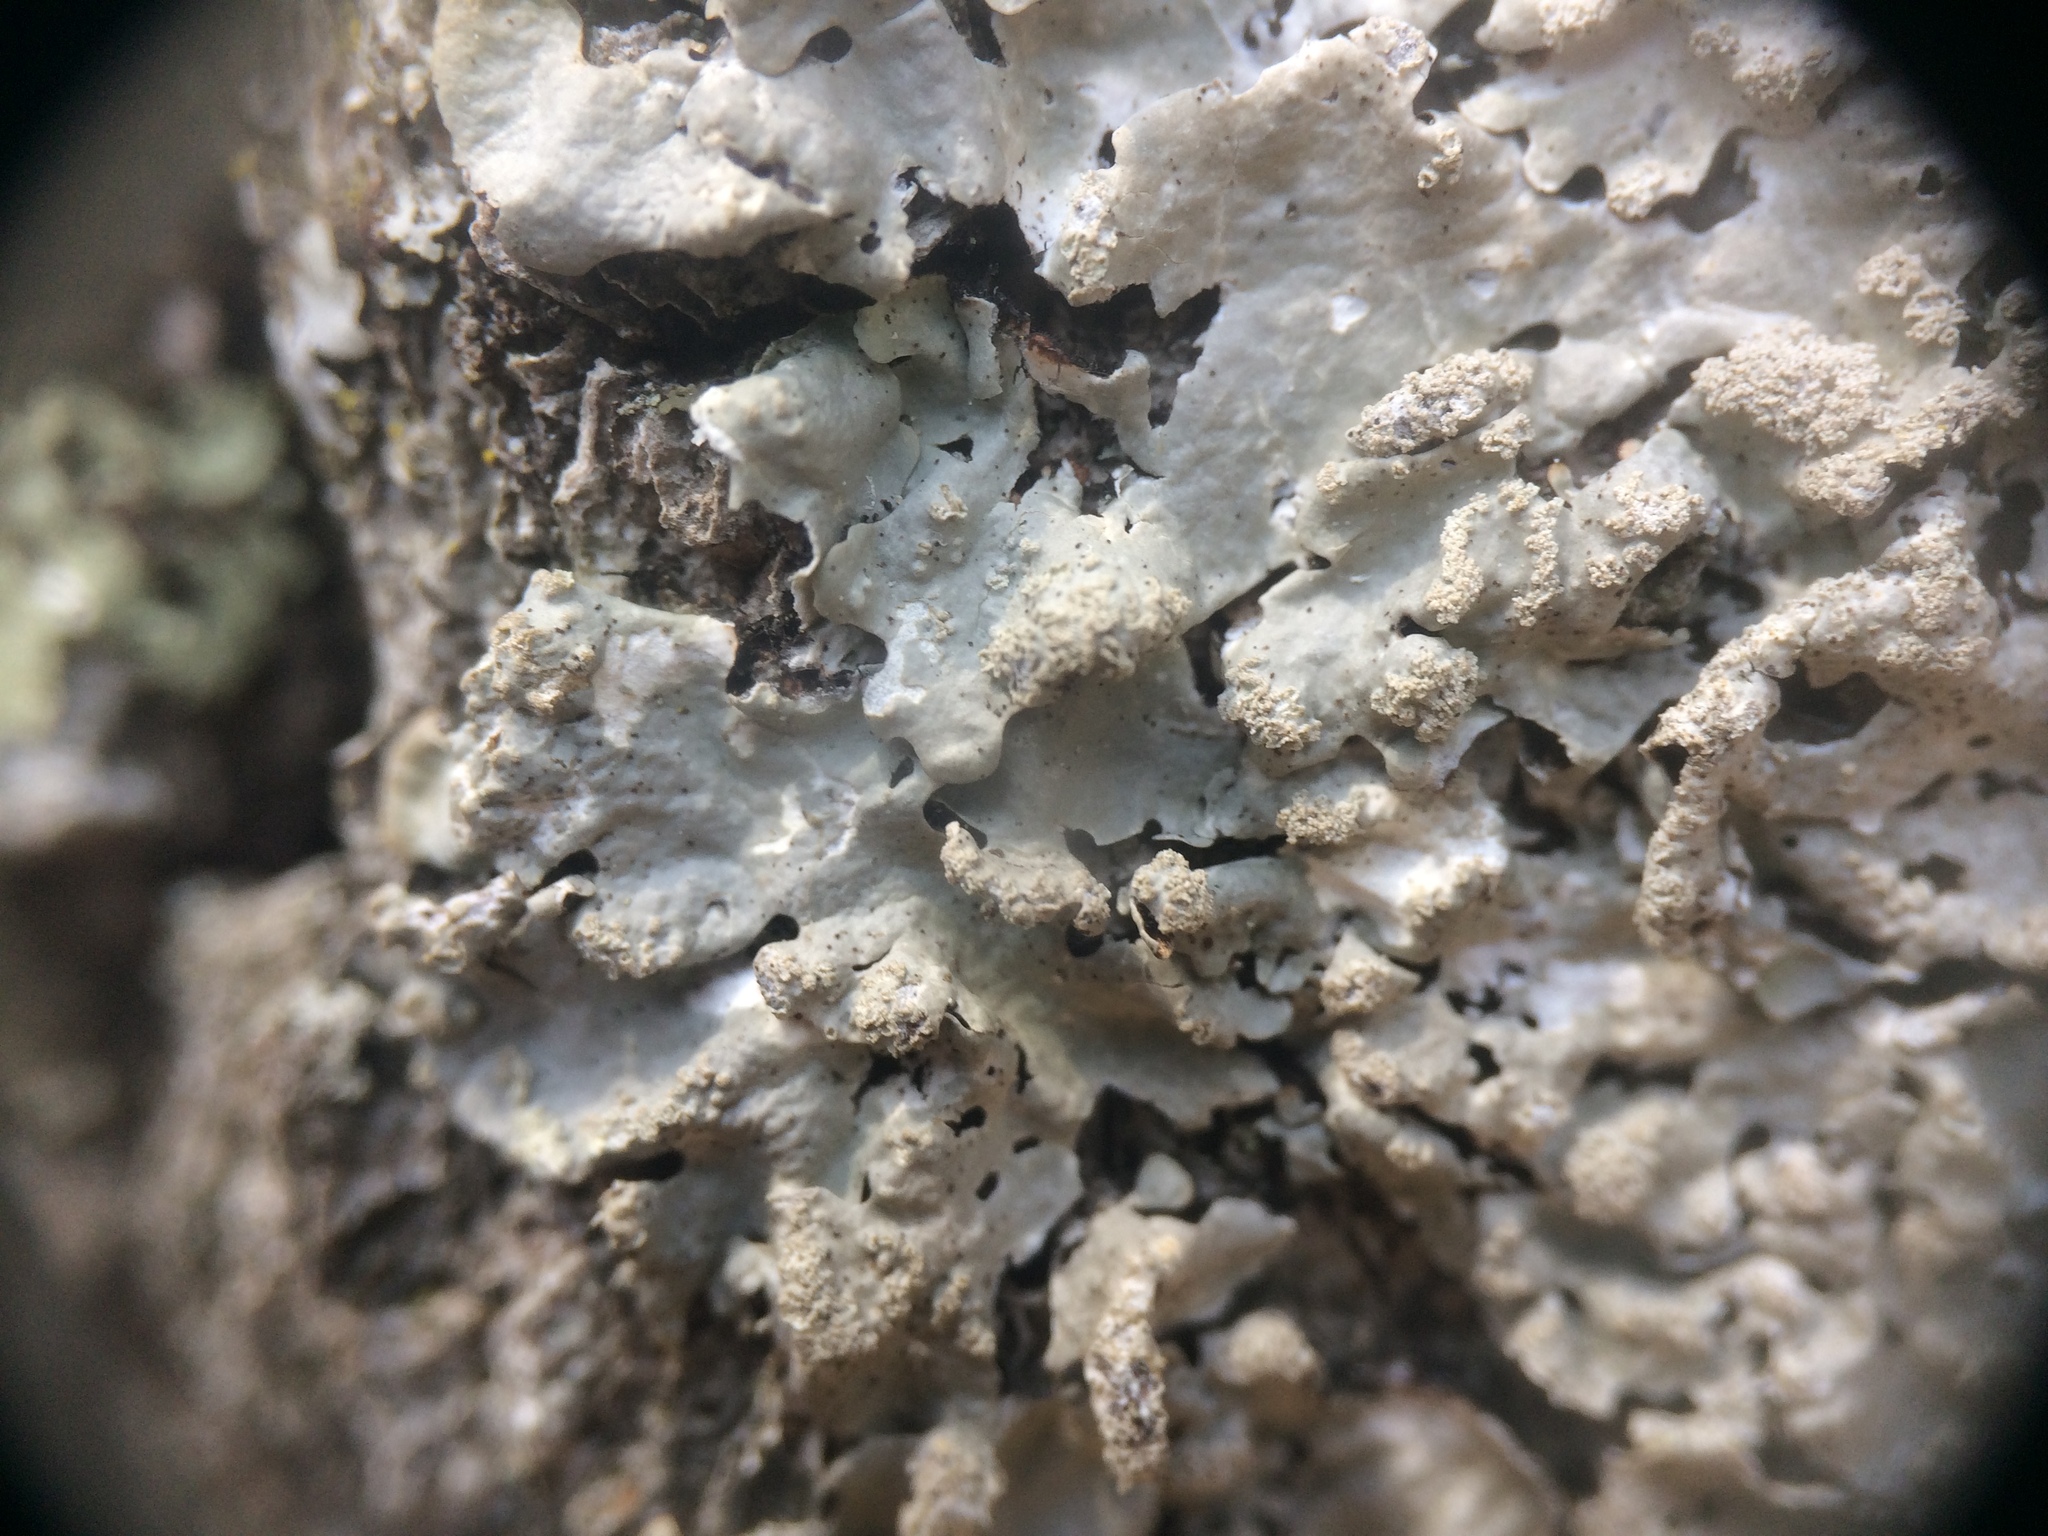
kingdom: Fungi
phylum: Ascomycota
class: Lecanoromycetes
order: Lecanorales
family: Parmeliaceae
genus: Myelochroa
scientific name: Myelochroa aurulenta
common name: Powdery axil-bristle lichen
